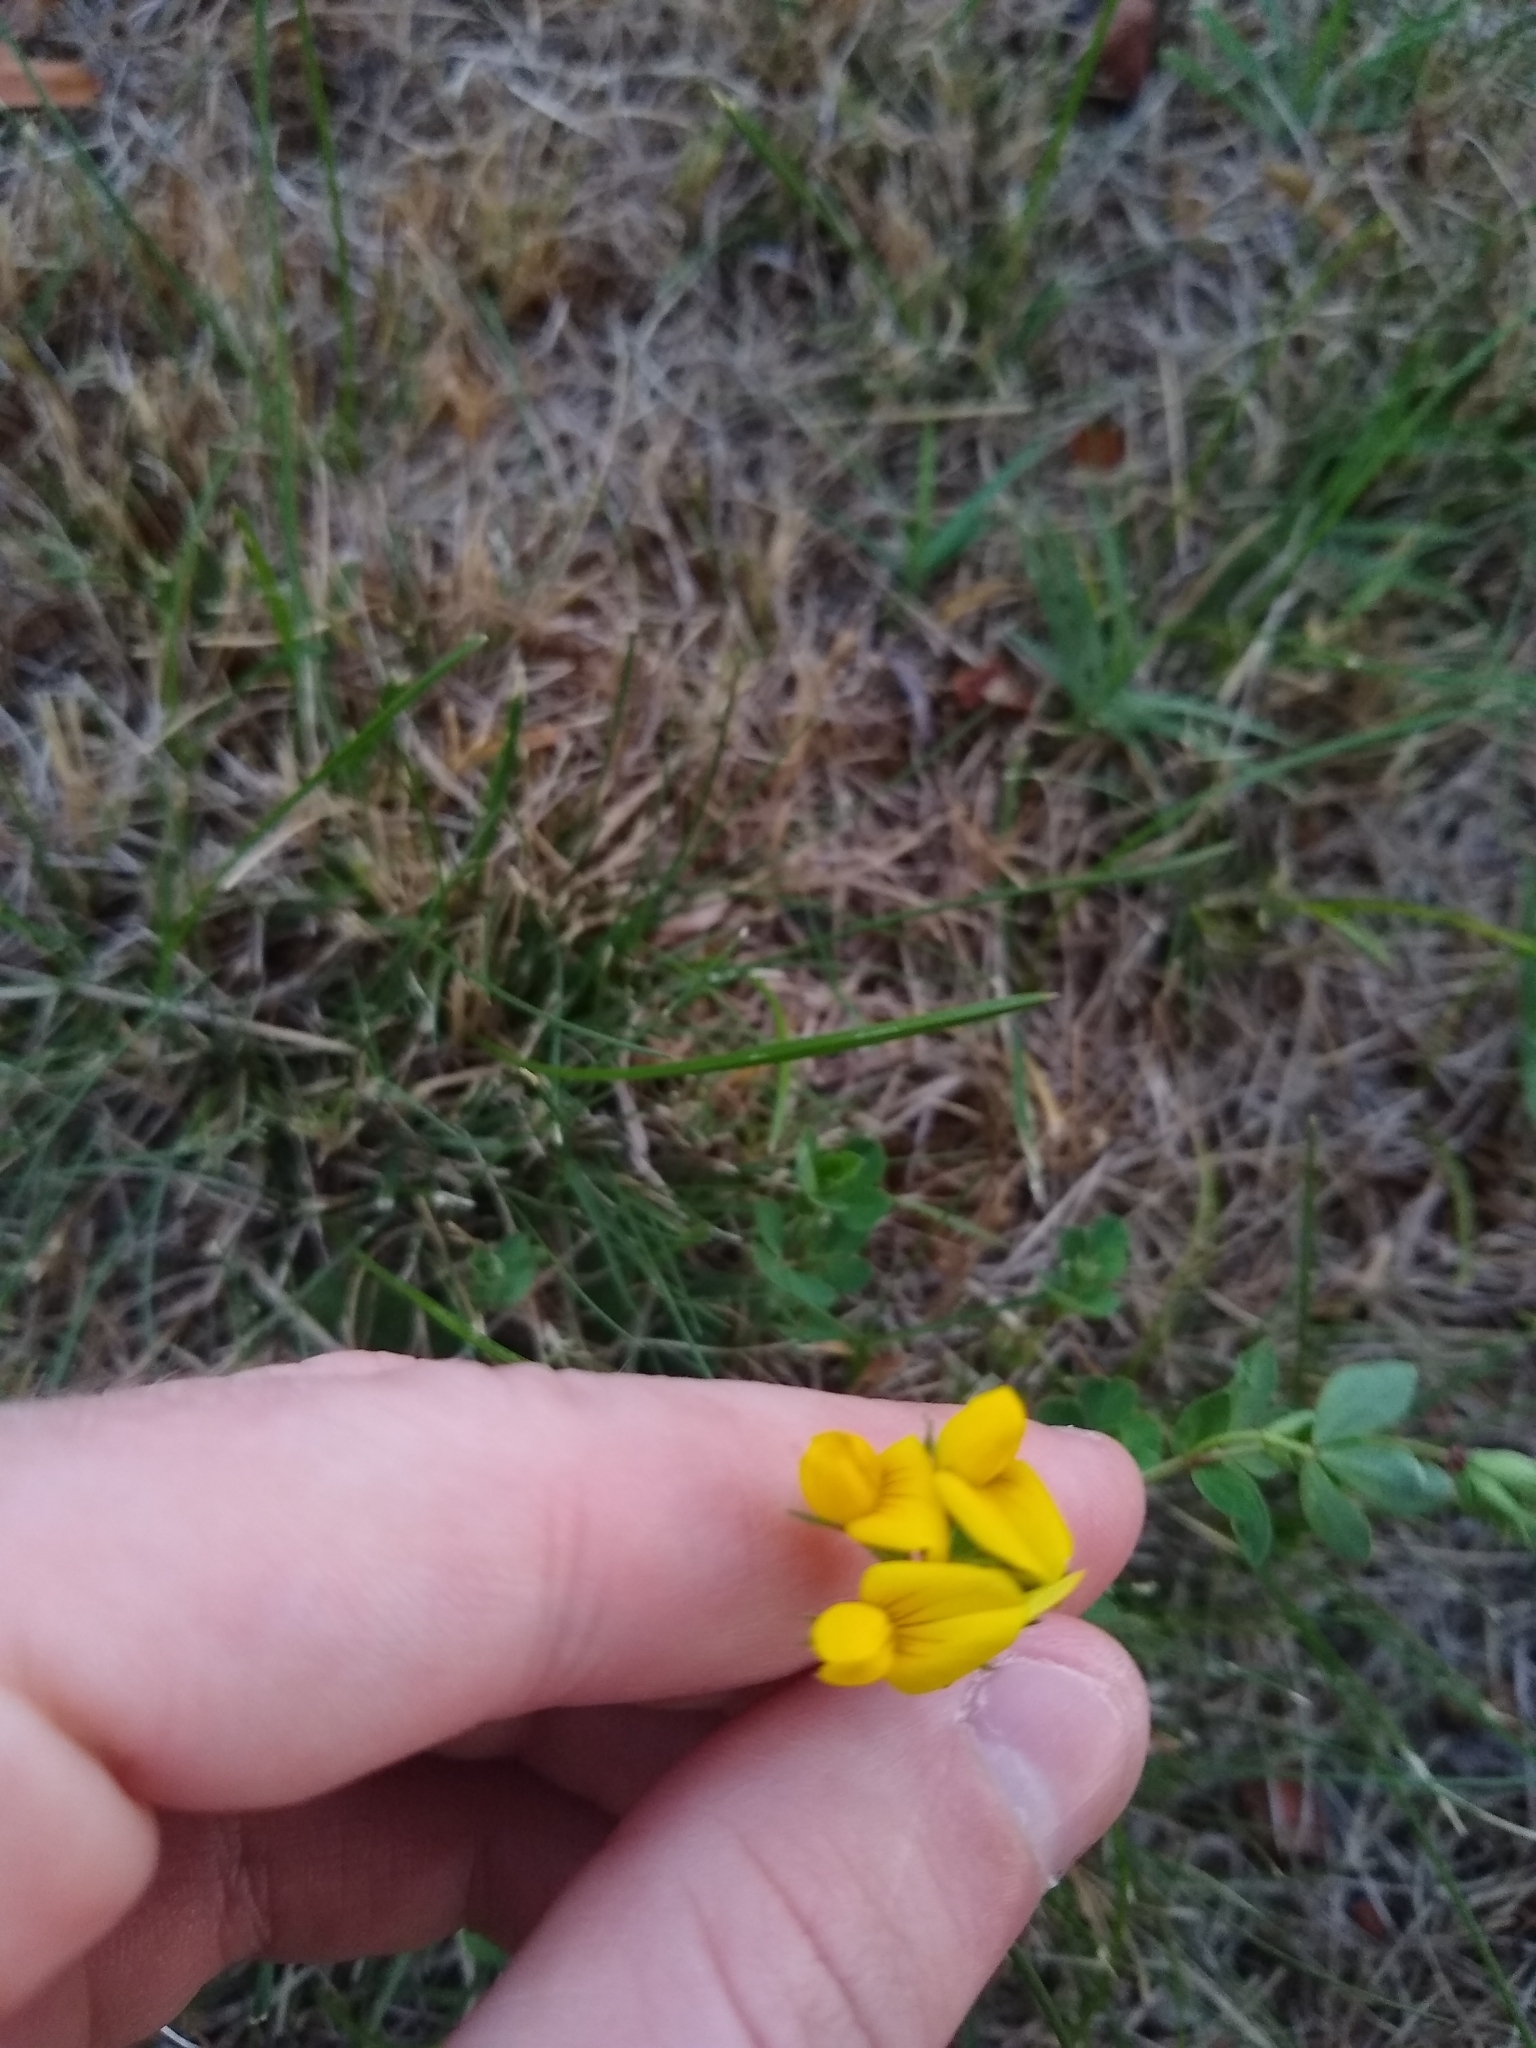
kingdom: Plantae
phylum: Tracheophyta
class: Magnoliopsida
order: Fabales
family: Fabaceae
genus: Lotus
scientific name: Lotus
